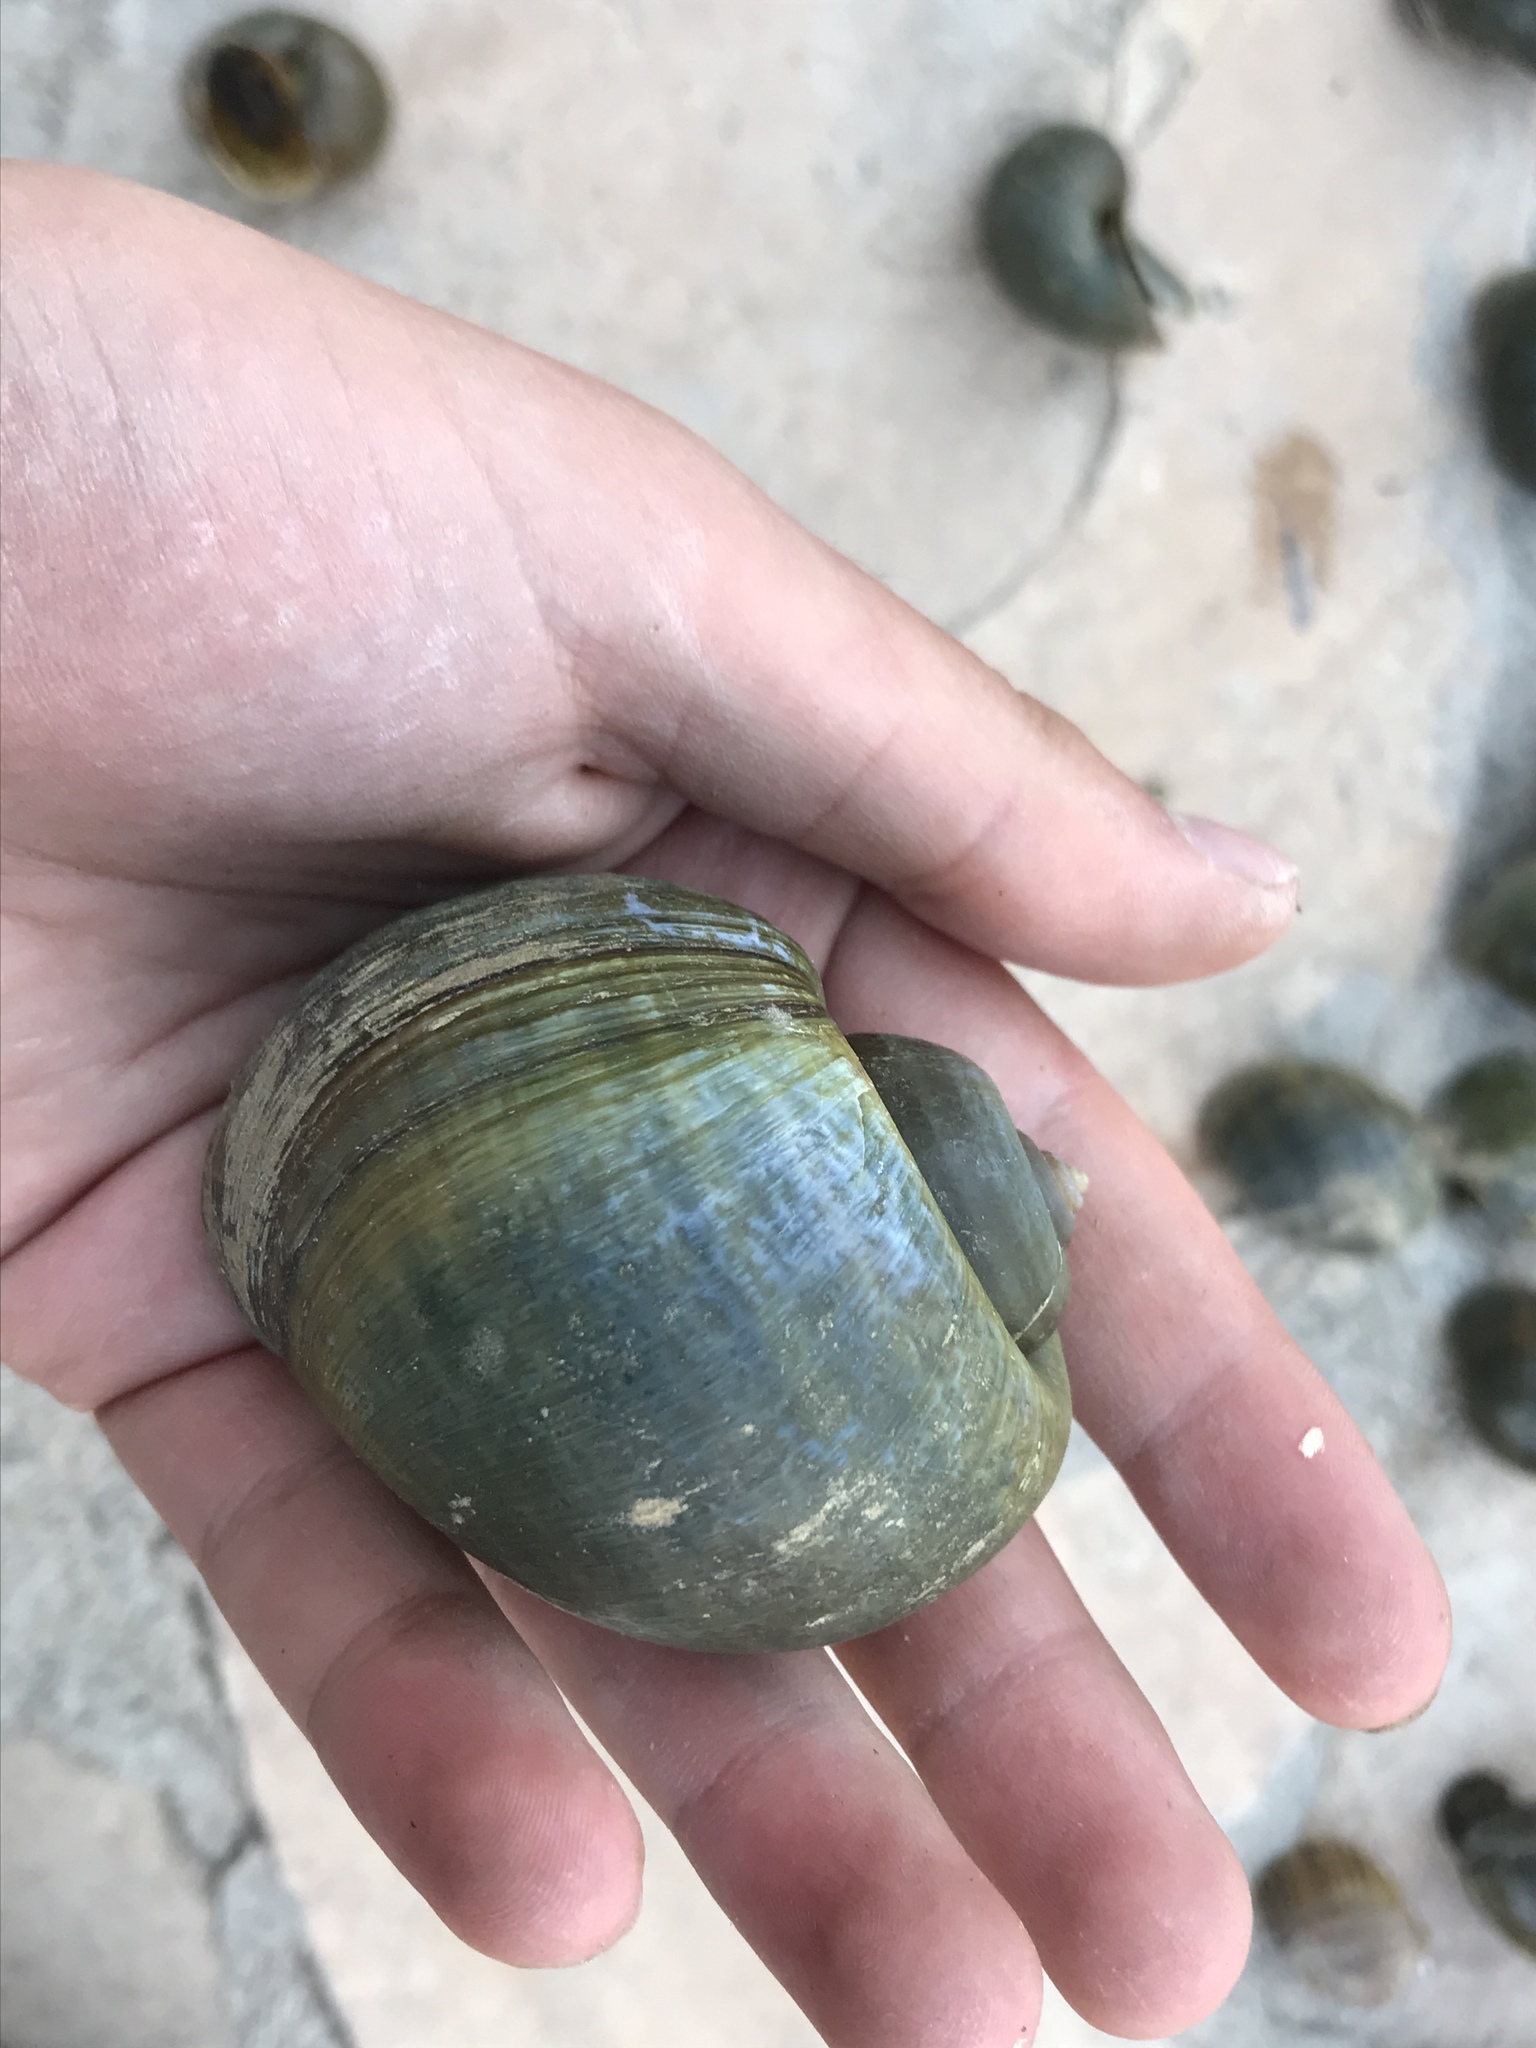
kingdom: Animalia
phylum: Mollusca
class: Gastropoda
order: Architaenioglossa
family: Ampullariidae
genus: Pomacea
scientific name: Pomacea canaliculata
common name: Channeled applesnail
